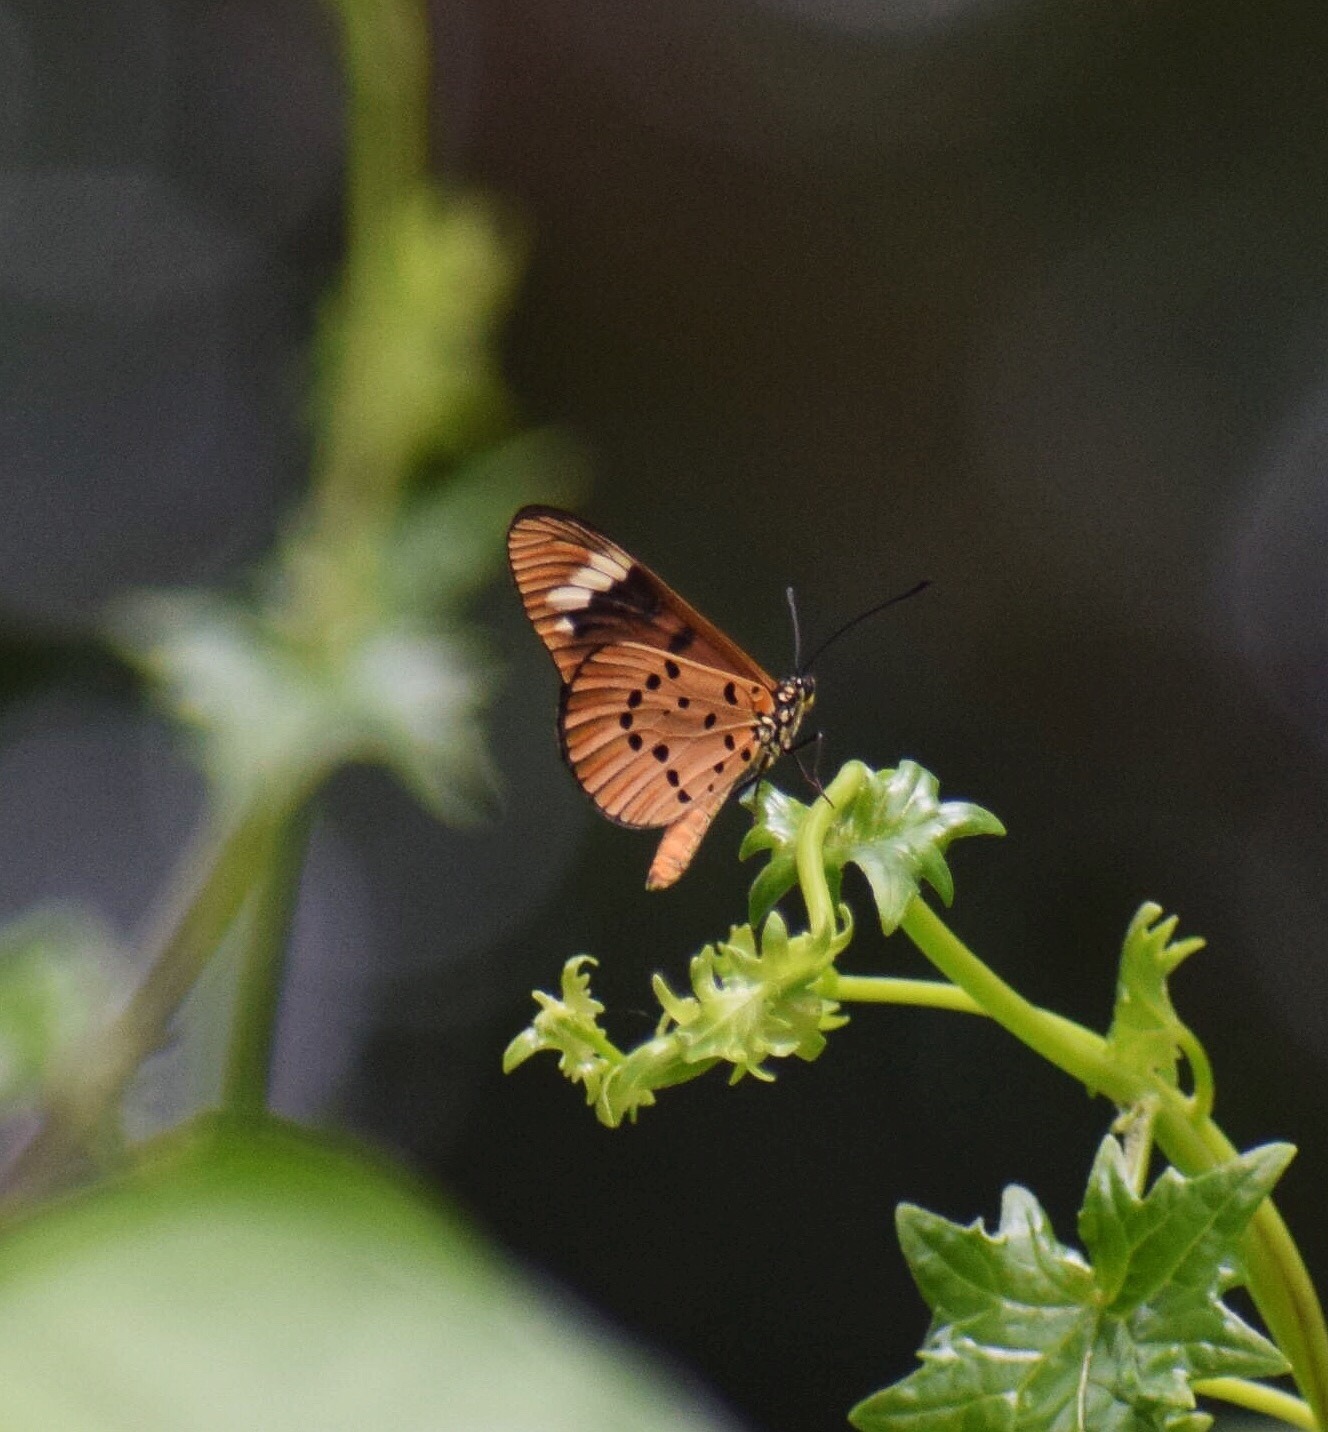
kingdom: Animalia
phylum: Arthropoda
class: Insecta
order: Lepidoptera
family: Nymphalidae
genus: Acraea
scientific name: Acraea Telchinia encedon
